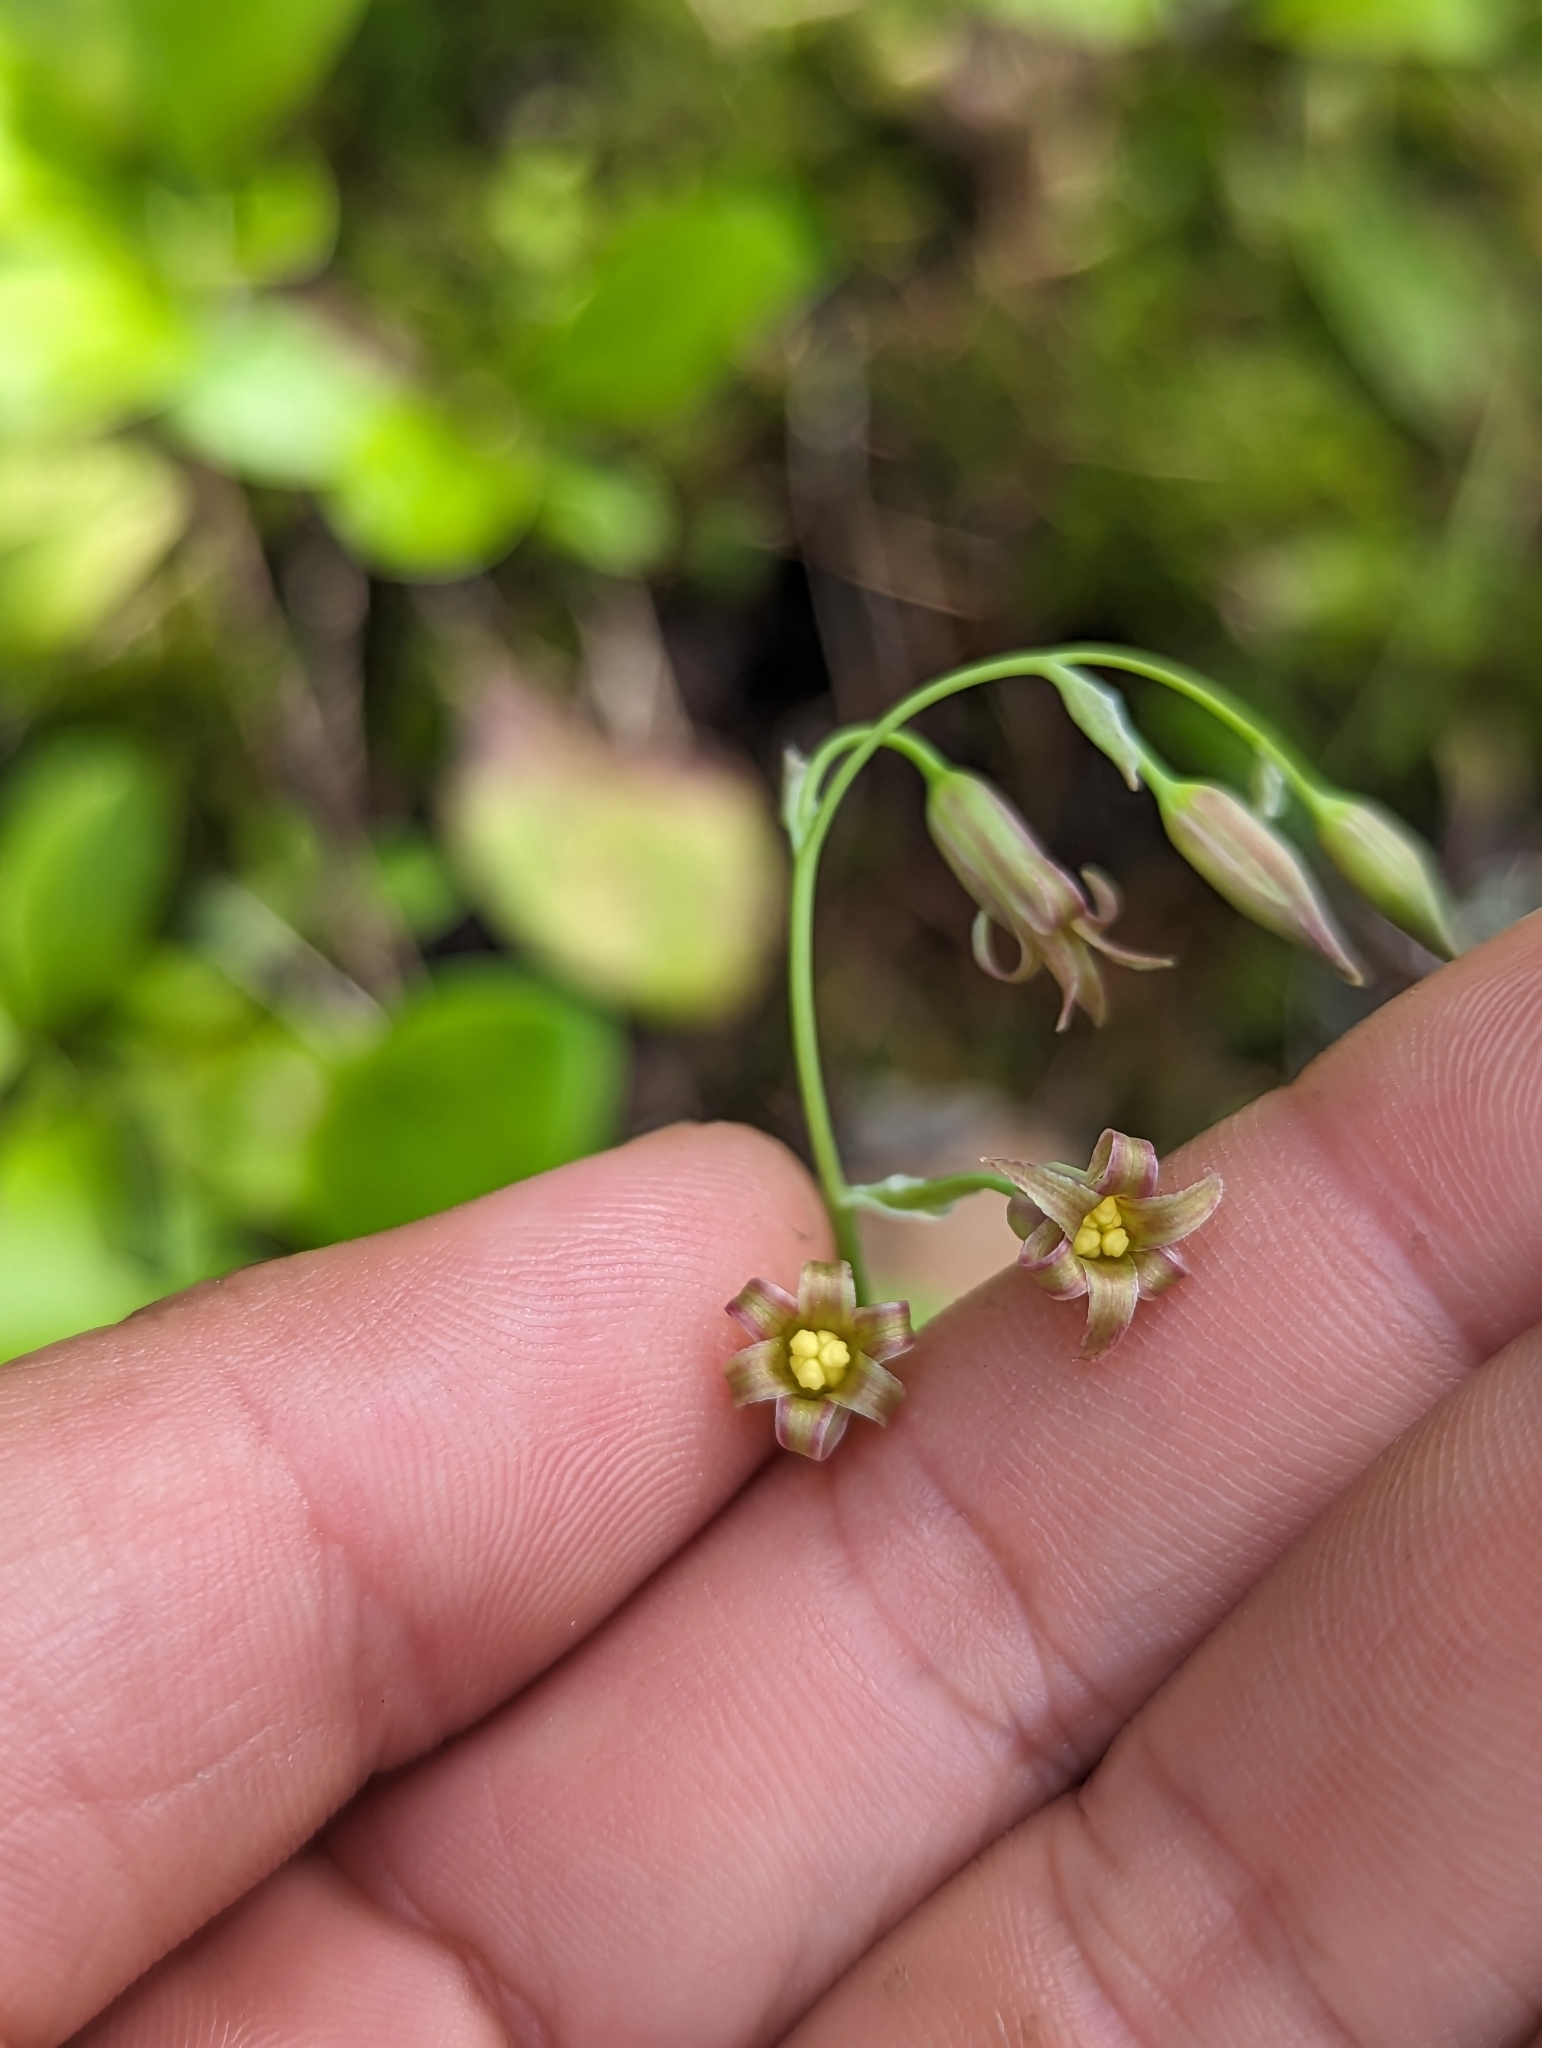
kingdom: Plantae
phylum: Tracheophyta
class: Liliopsida
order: Liliales
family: Melanthiaceae
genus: Anticlea
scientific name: Anticlea occidentalis
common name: Bronze-bells
